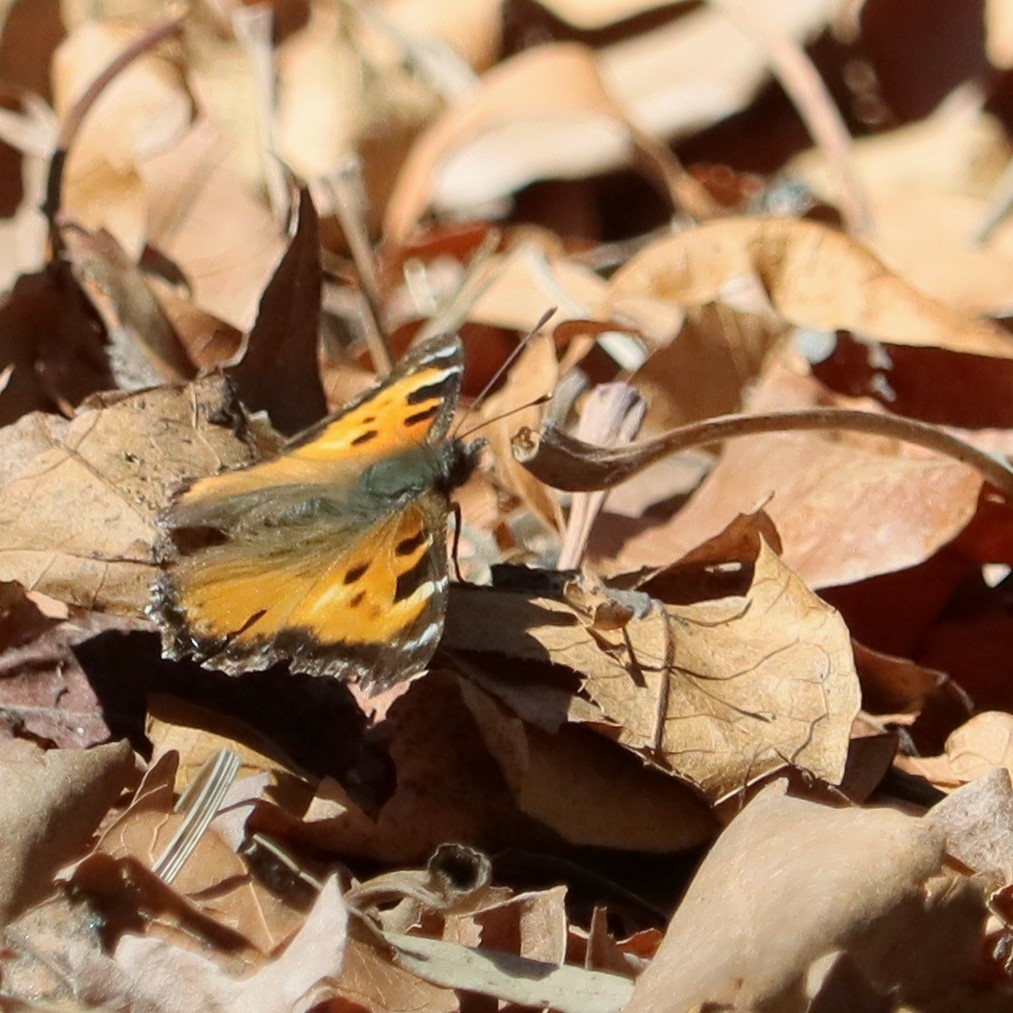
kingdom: Animalia
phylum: Arthropoda
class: Insecta
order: Lepidoptera
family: Nymphalidae
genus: Nymphalis
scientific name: Nymphalis californica
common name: California tortoiseshell
